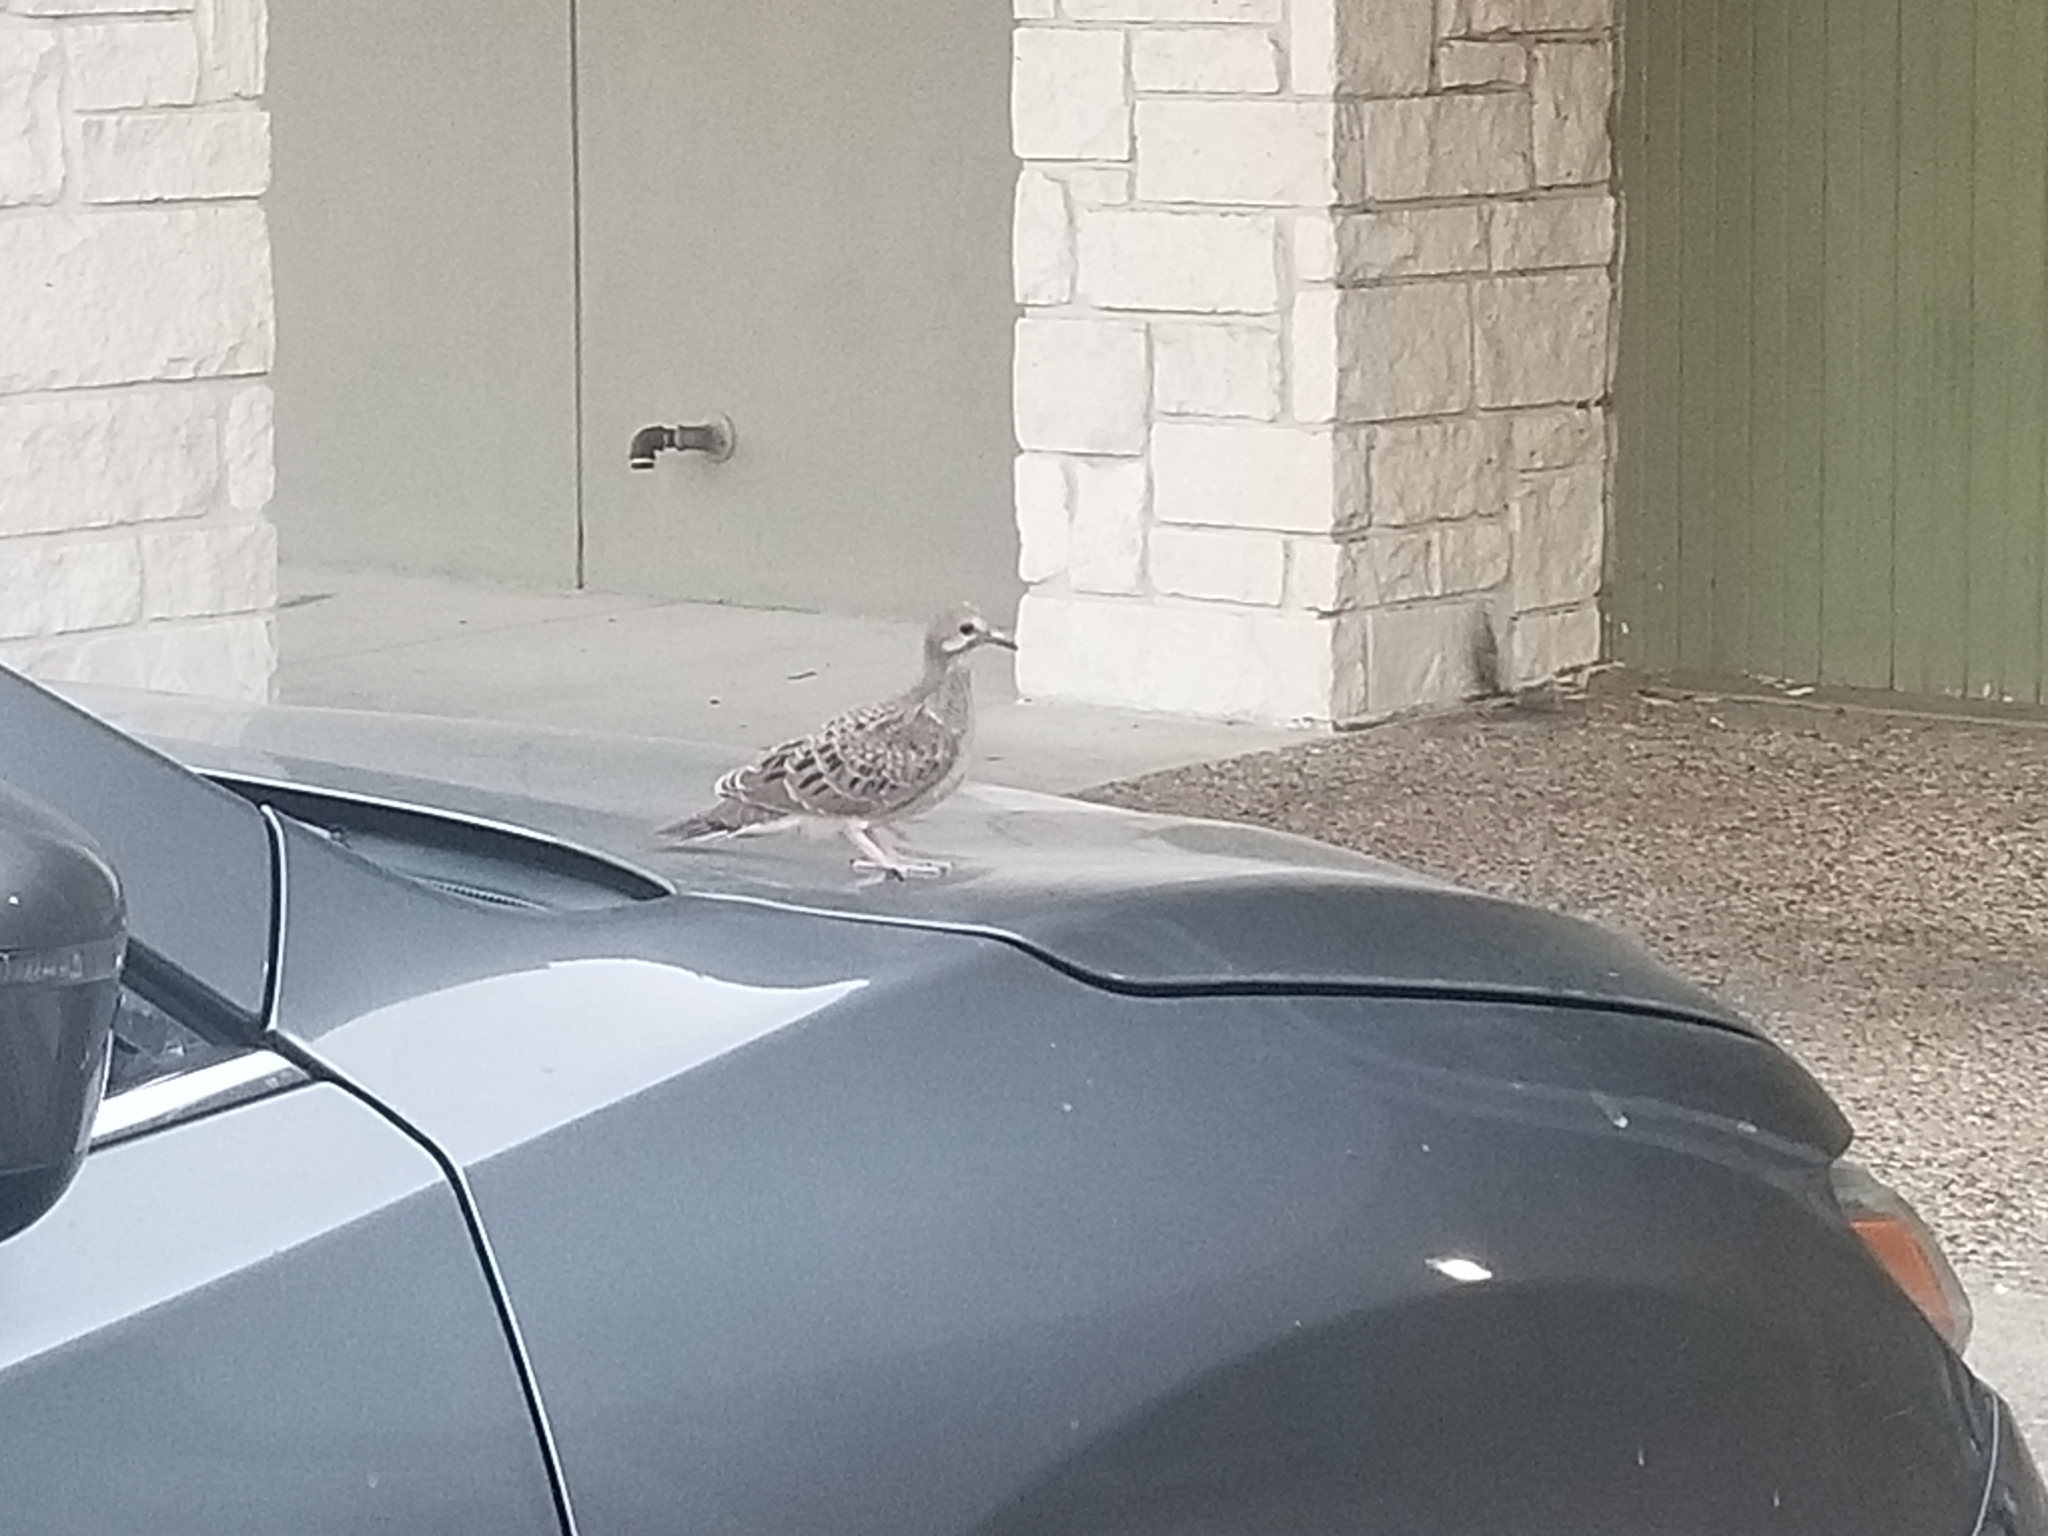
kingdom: Animalia
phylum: Chordata
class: Aves
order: Columbiformes
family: Columbidae
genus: Zenaida
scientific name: Zenaida macroura
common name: Mourning dove
